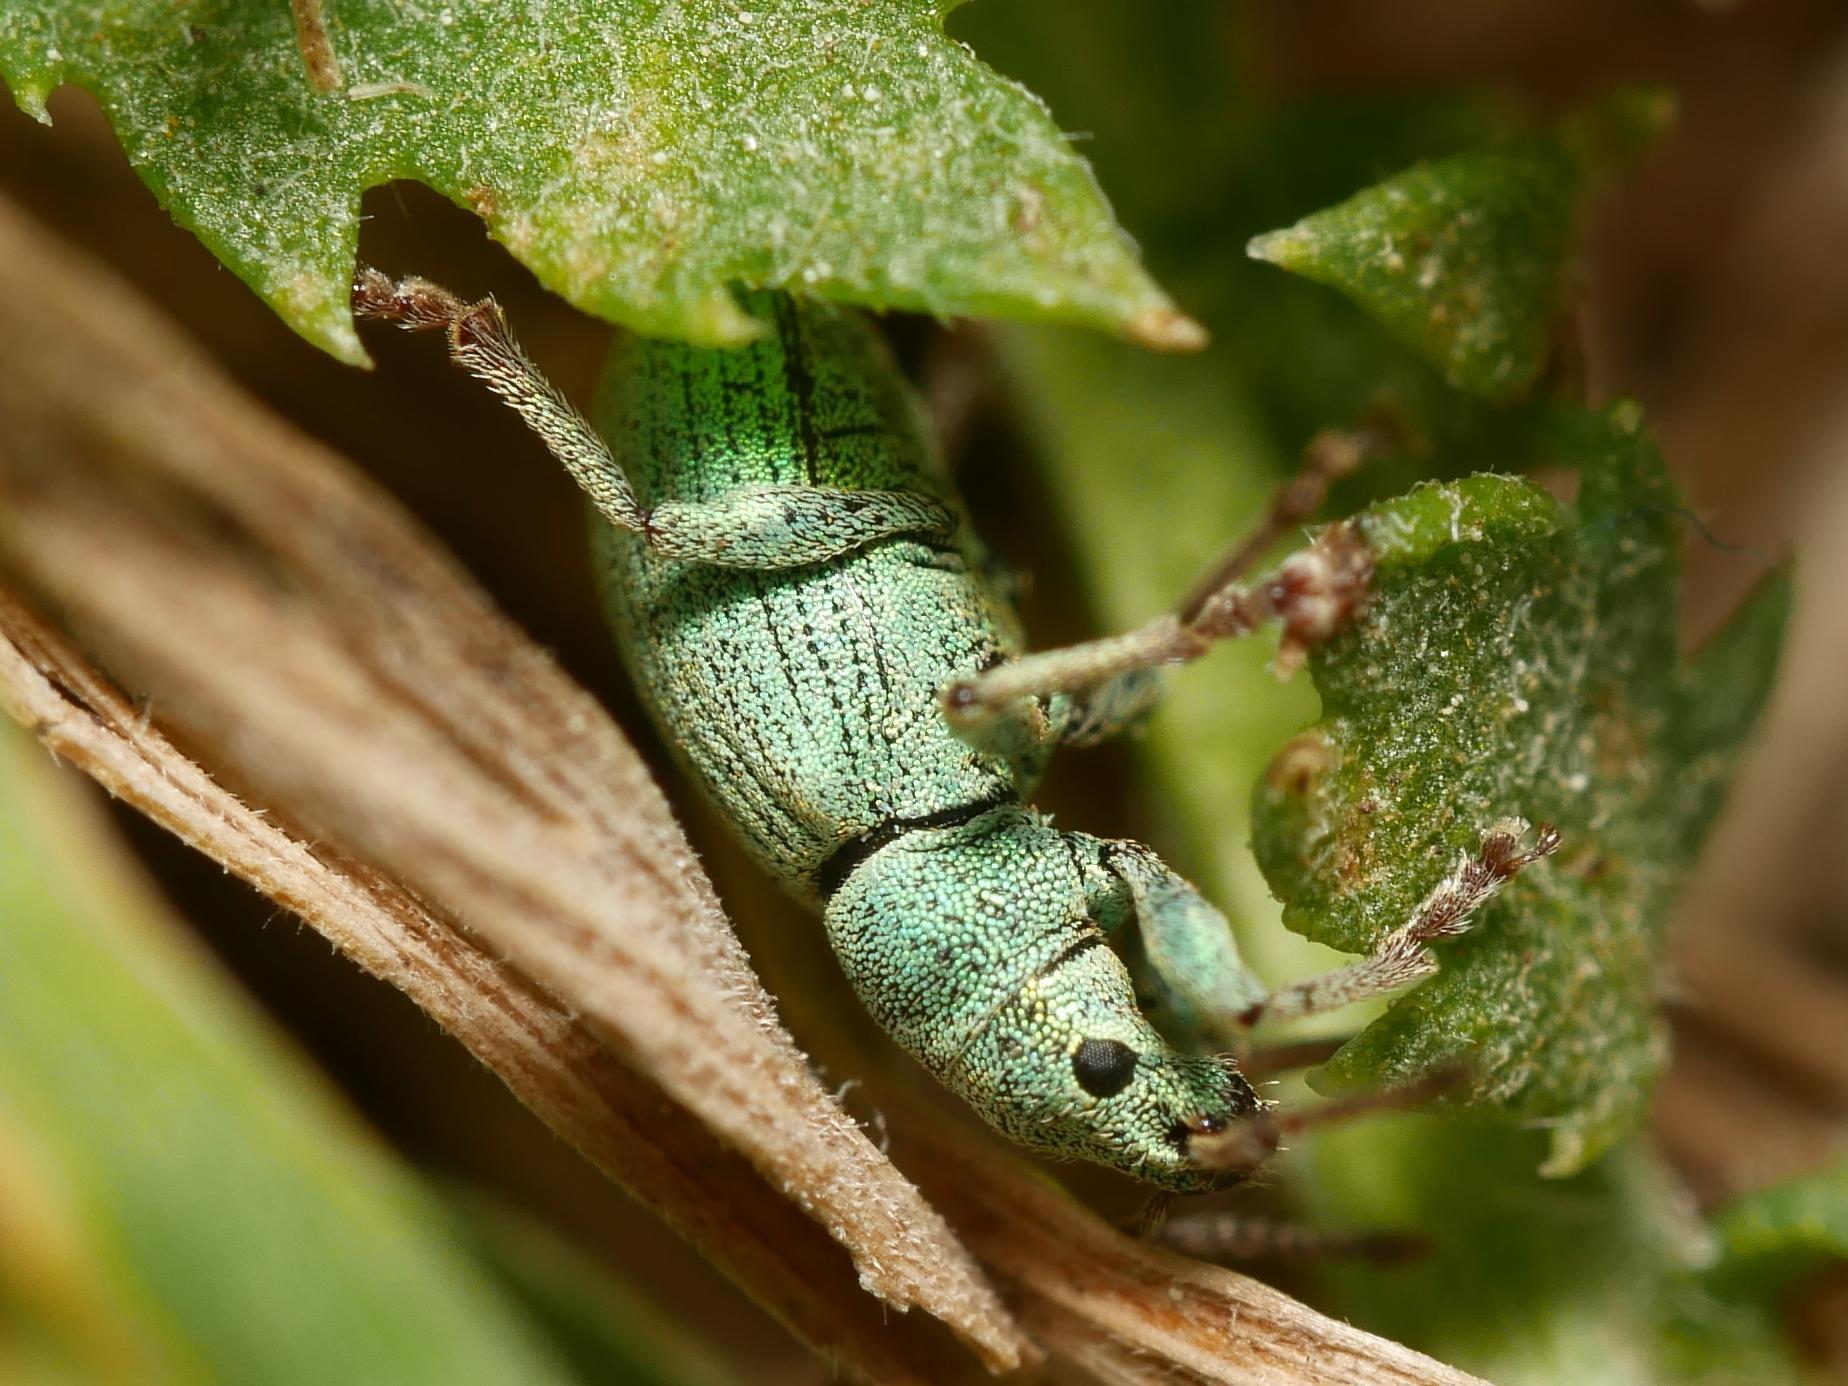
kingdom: Animalia
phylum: Arthropoda
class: Insecta
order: Coleoptera
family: Curculionidae
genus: Phyllobius
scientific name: Phyllobius virideaeris
